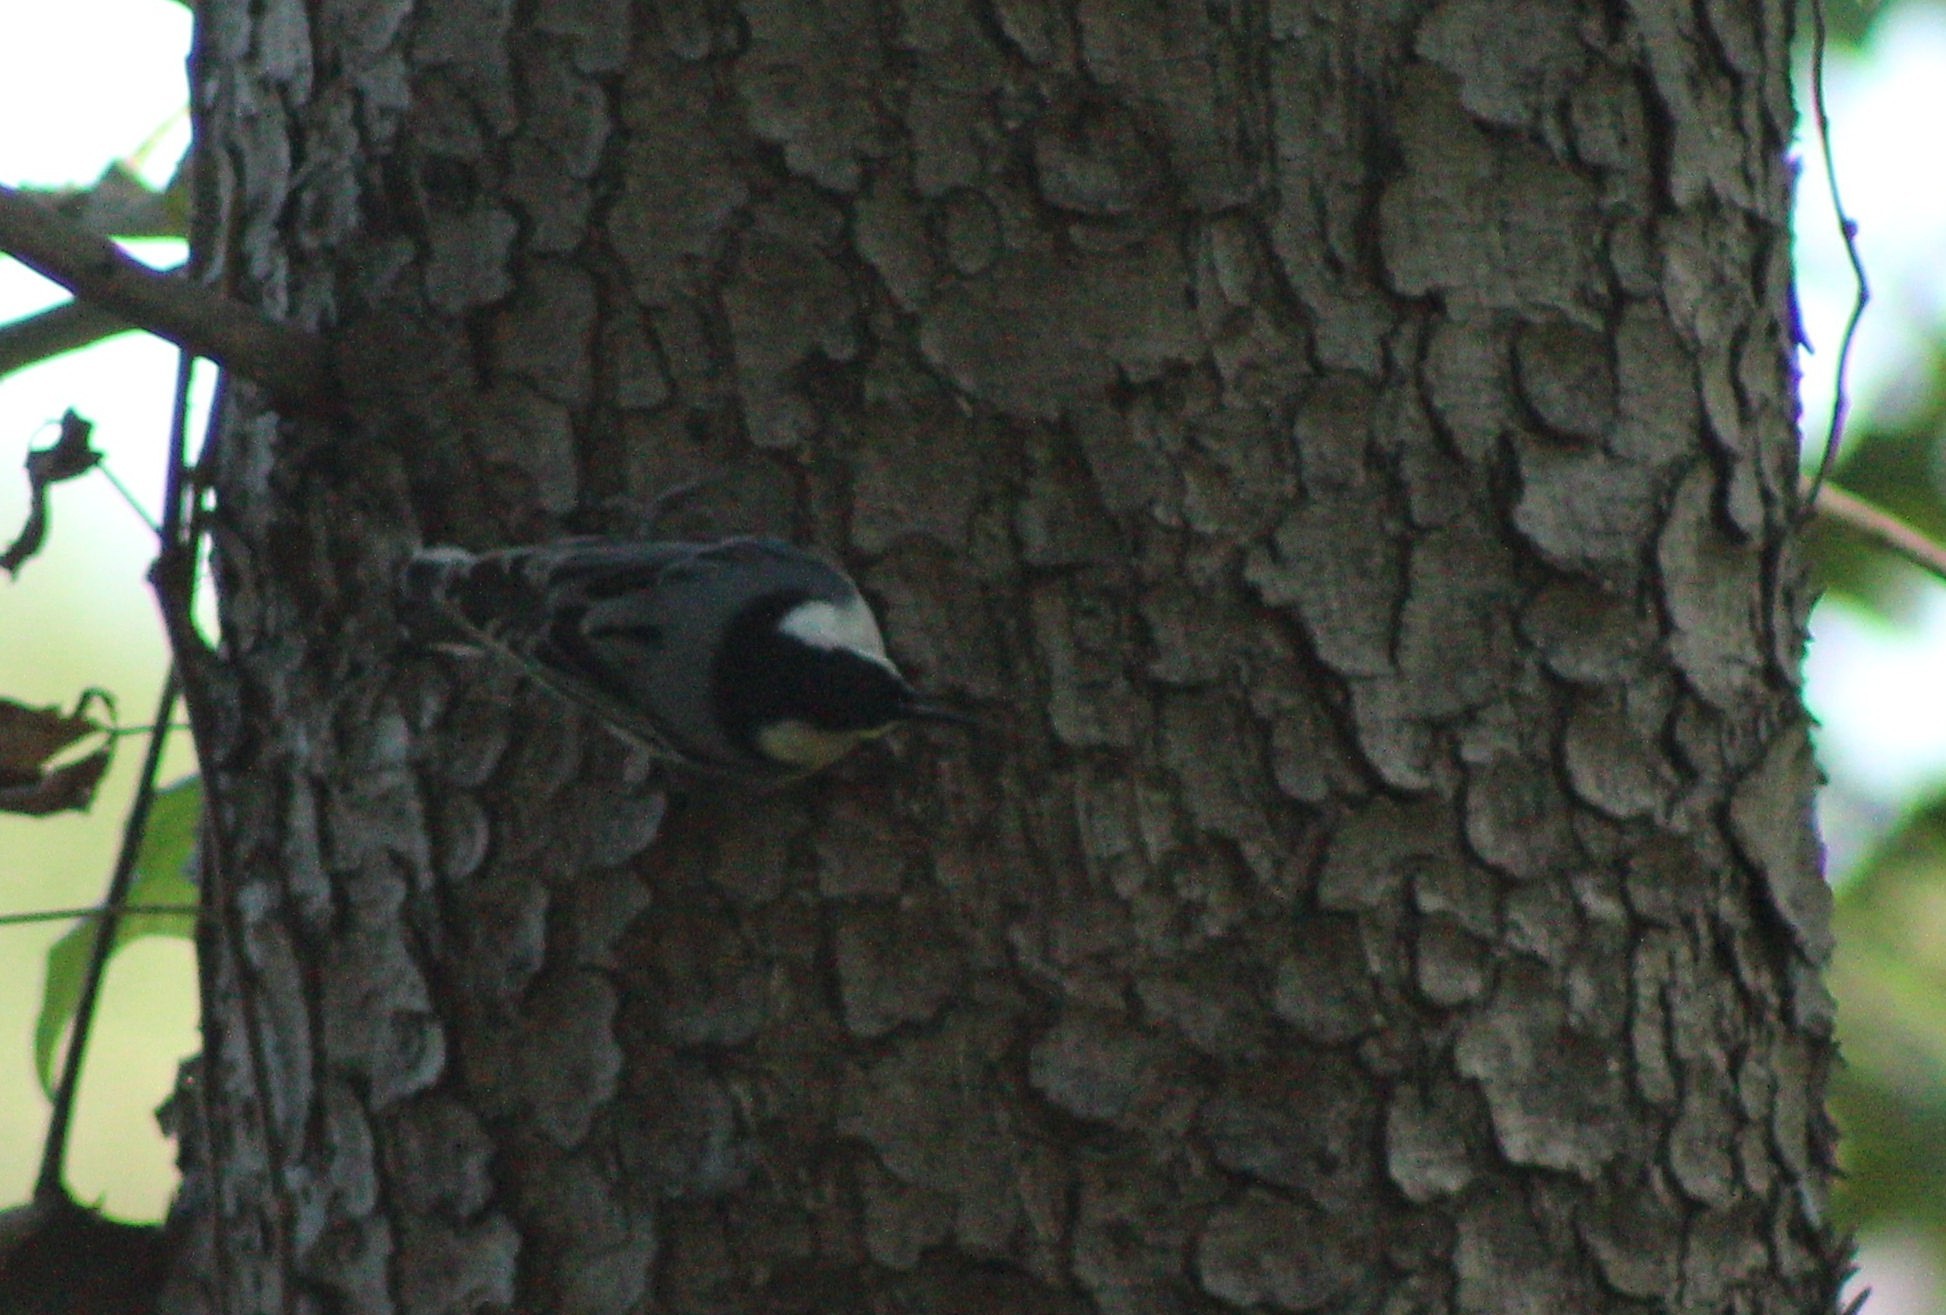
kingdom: Animalia
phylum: Chordata
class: Aves
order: Passeriformes
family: Sittidae
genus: Sitta
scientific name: Sitta carolinensis
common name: White-breasted nuthatch
